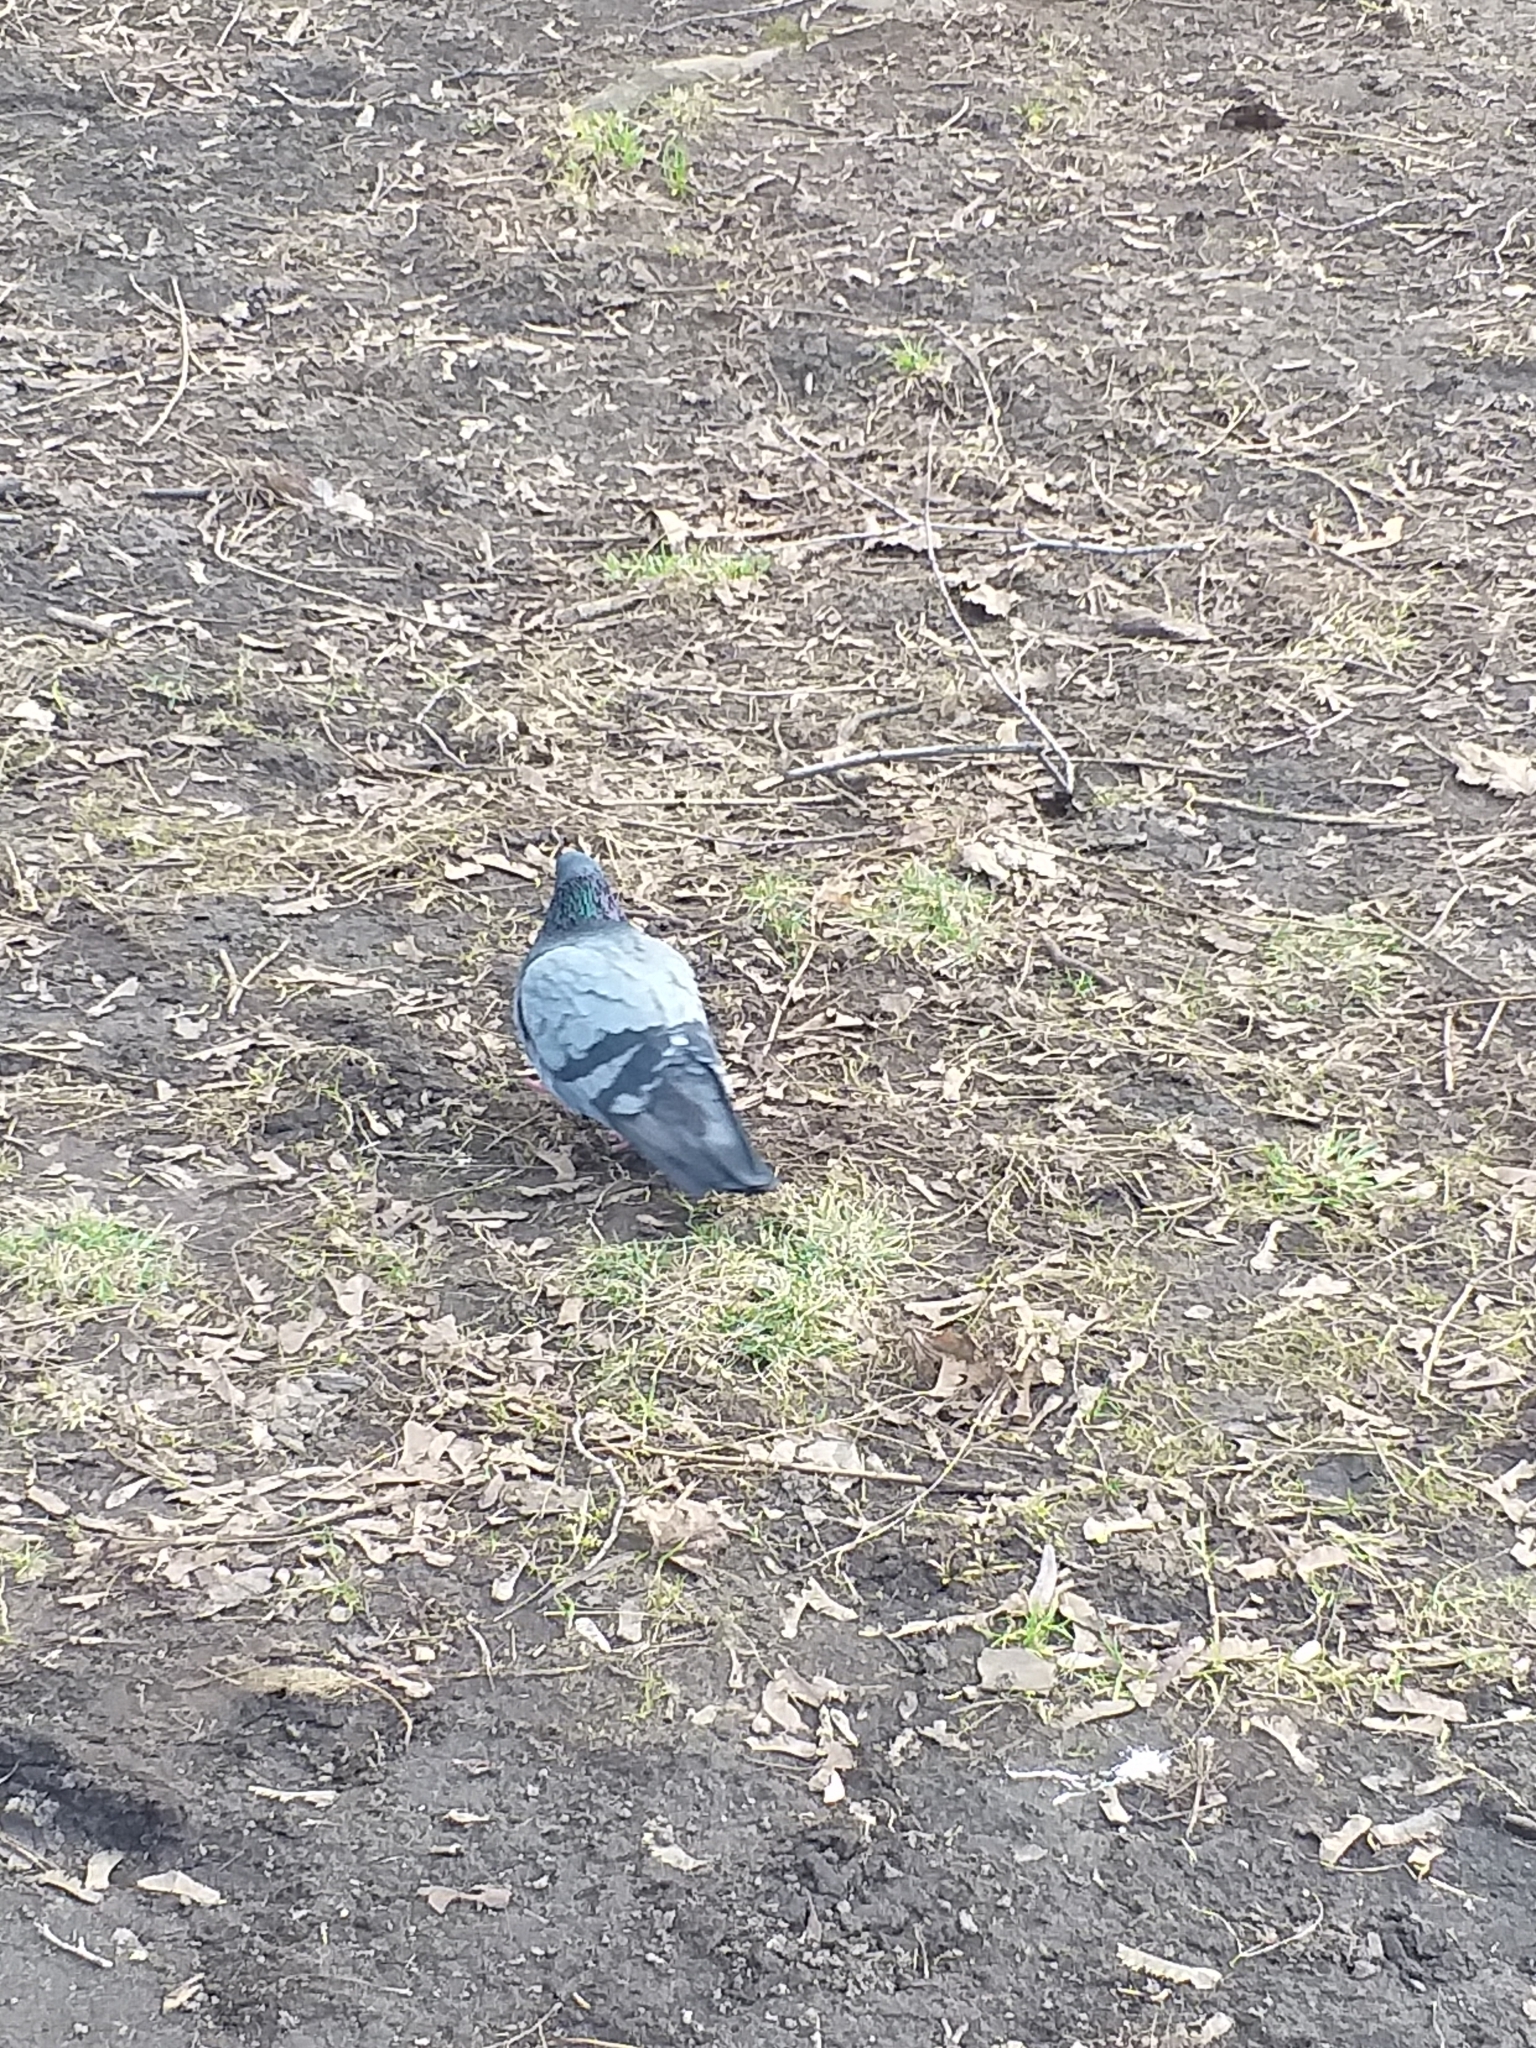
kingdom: Animalia
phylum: Chordata
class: Aves
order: Columbiformes
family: Columbidae
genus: Columba
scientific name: Columba livia
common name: Rock pigeon
